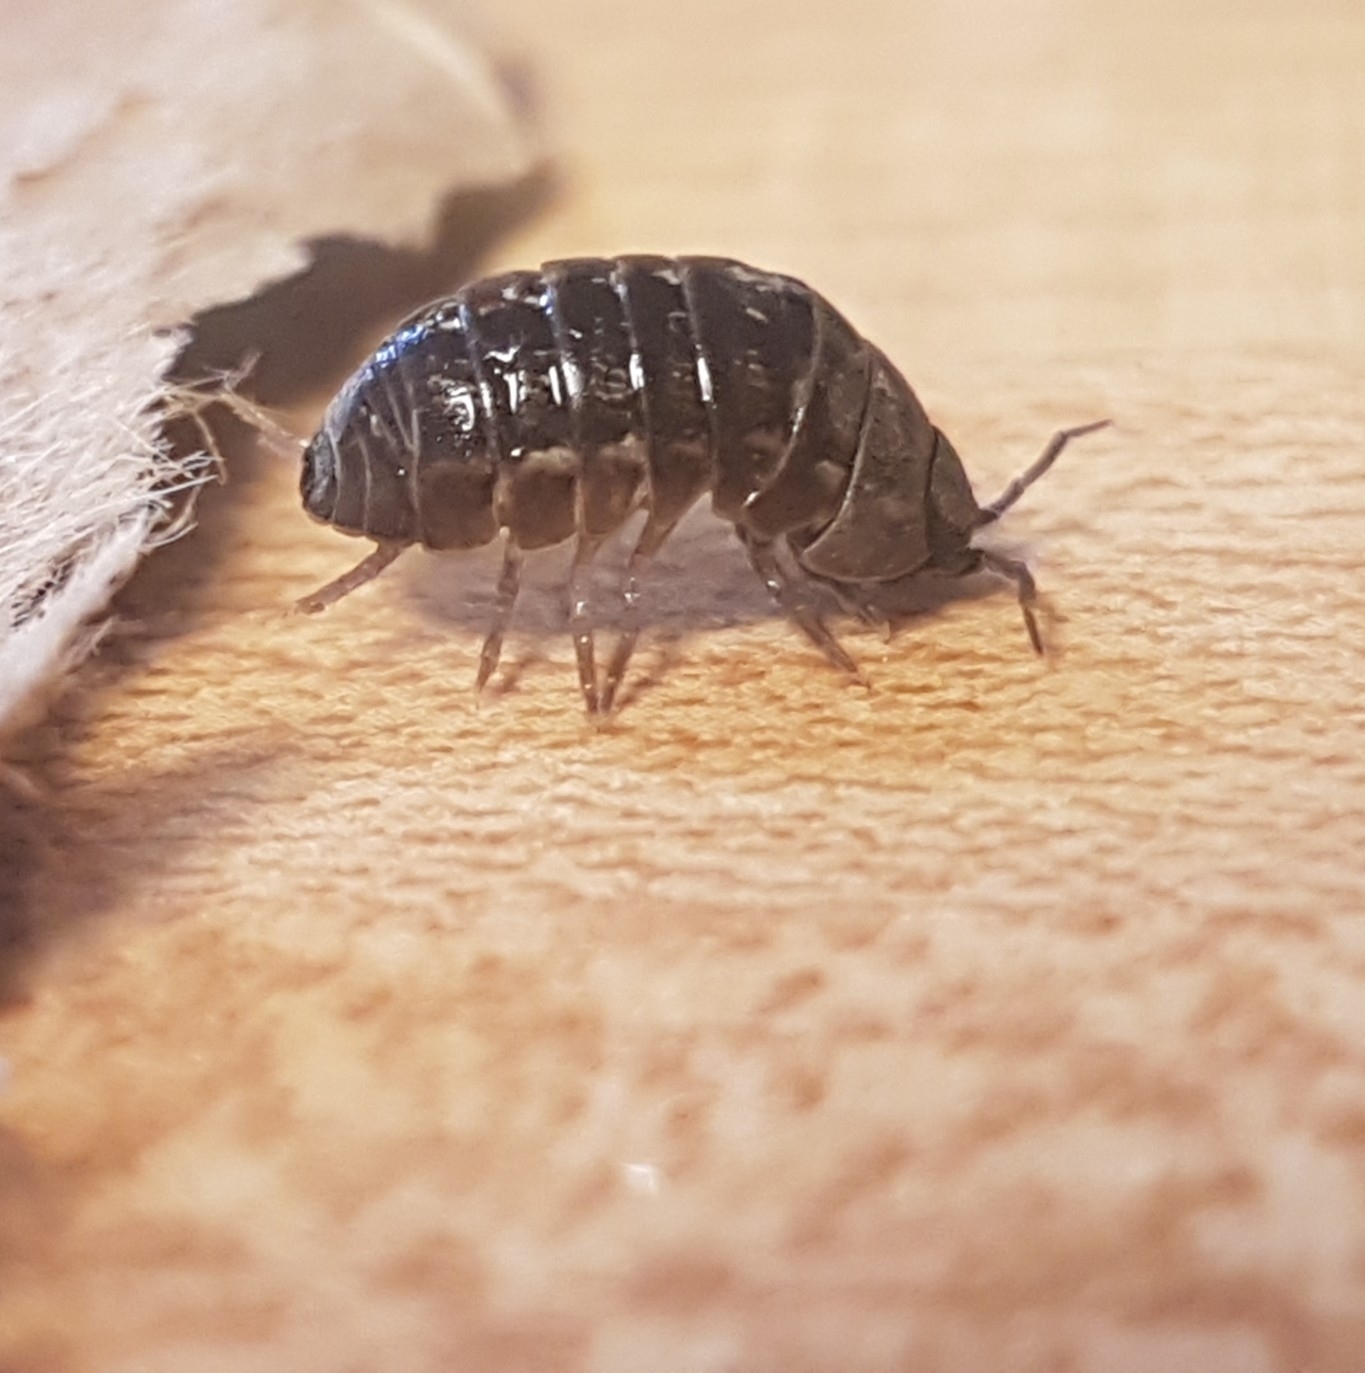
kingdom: Animalia
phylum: Arthropoda
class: Malacostraca
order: Isopoda
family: Armadillidiidae
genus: Armadillidium
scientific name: Armadillidium vulgare
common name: Common pill woodlouse
